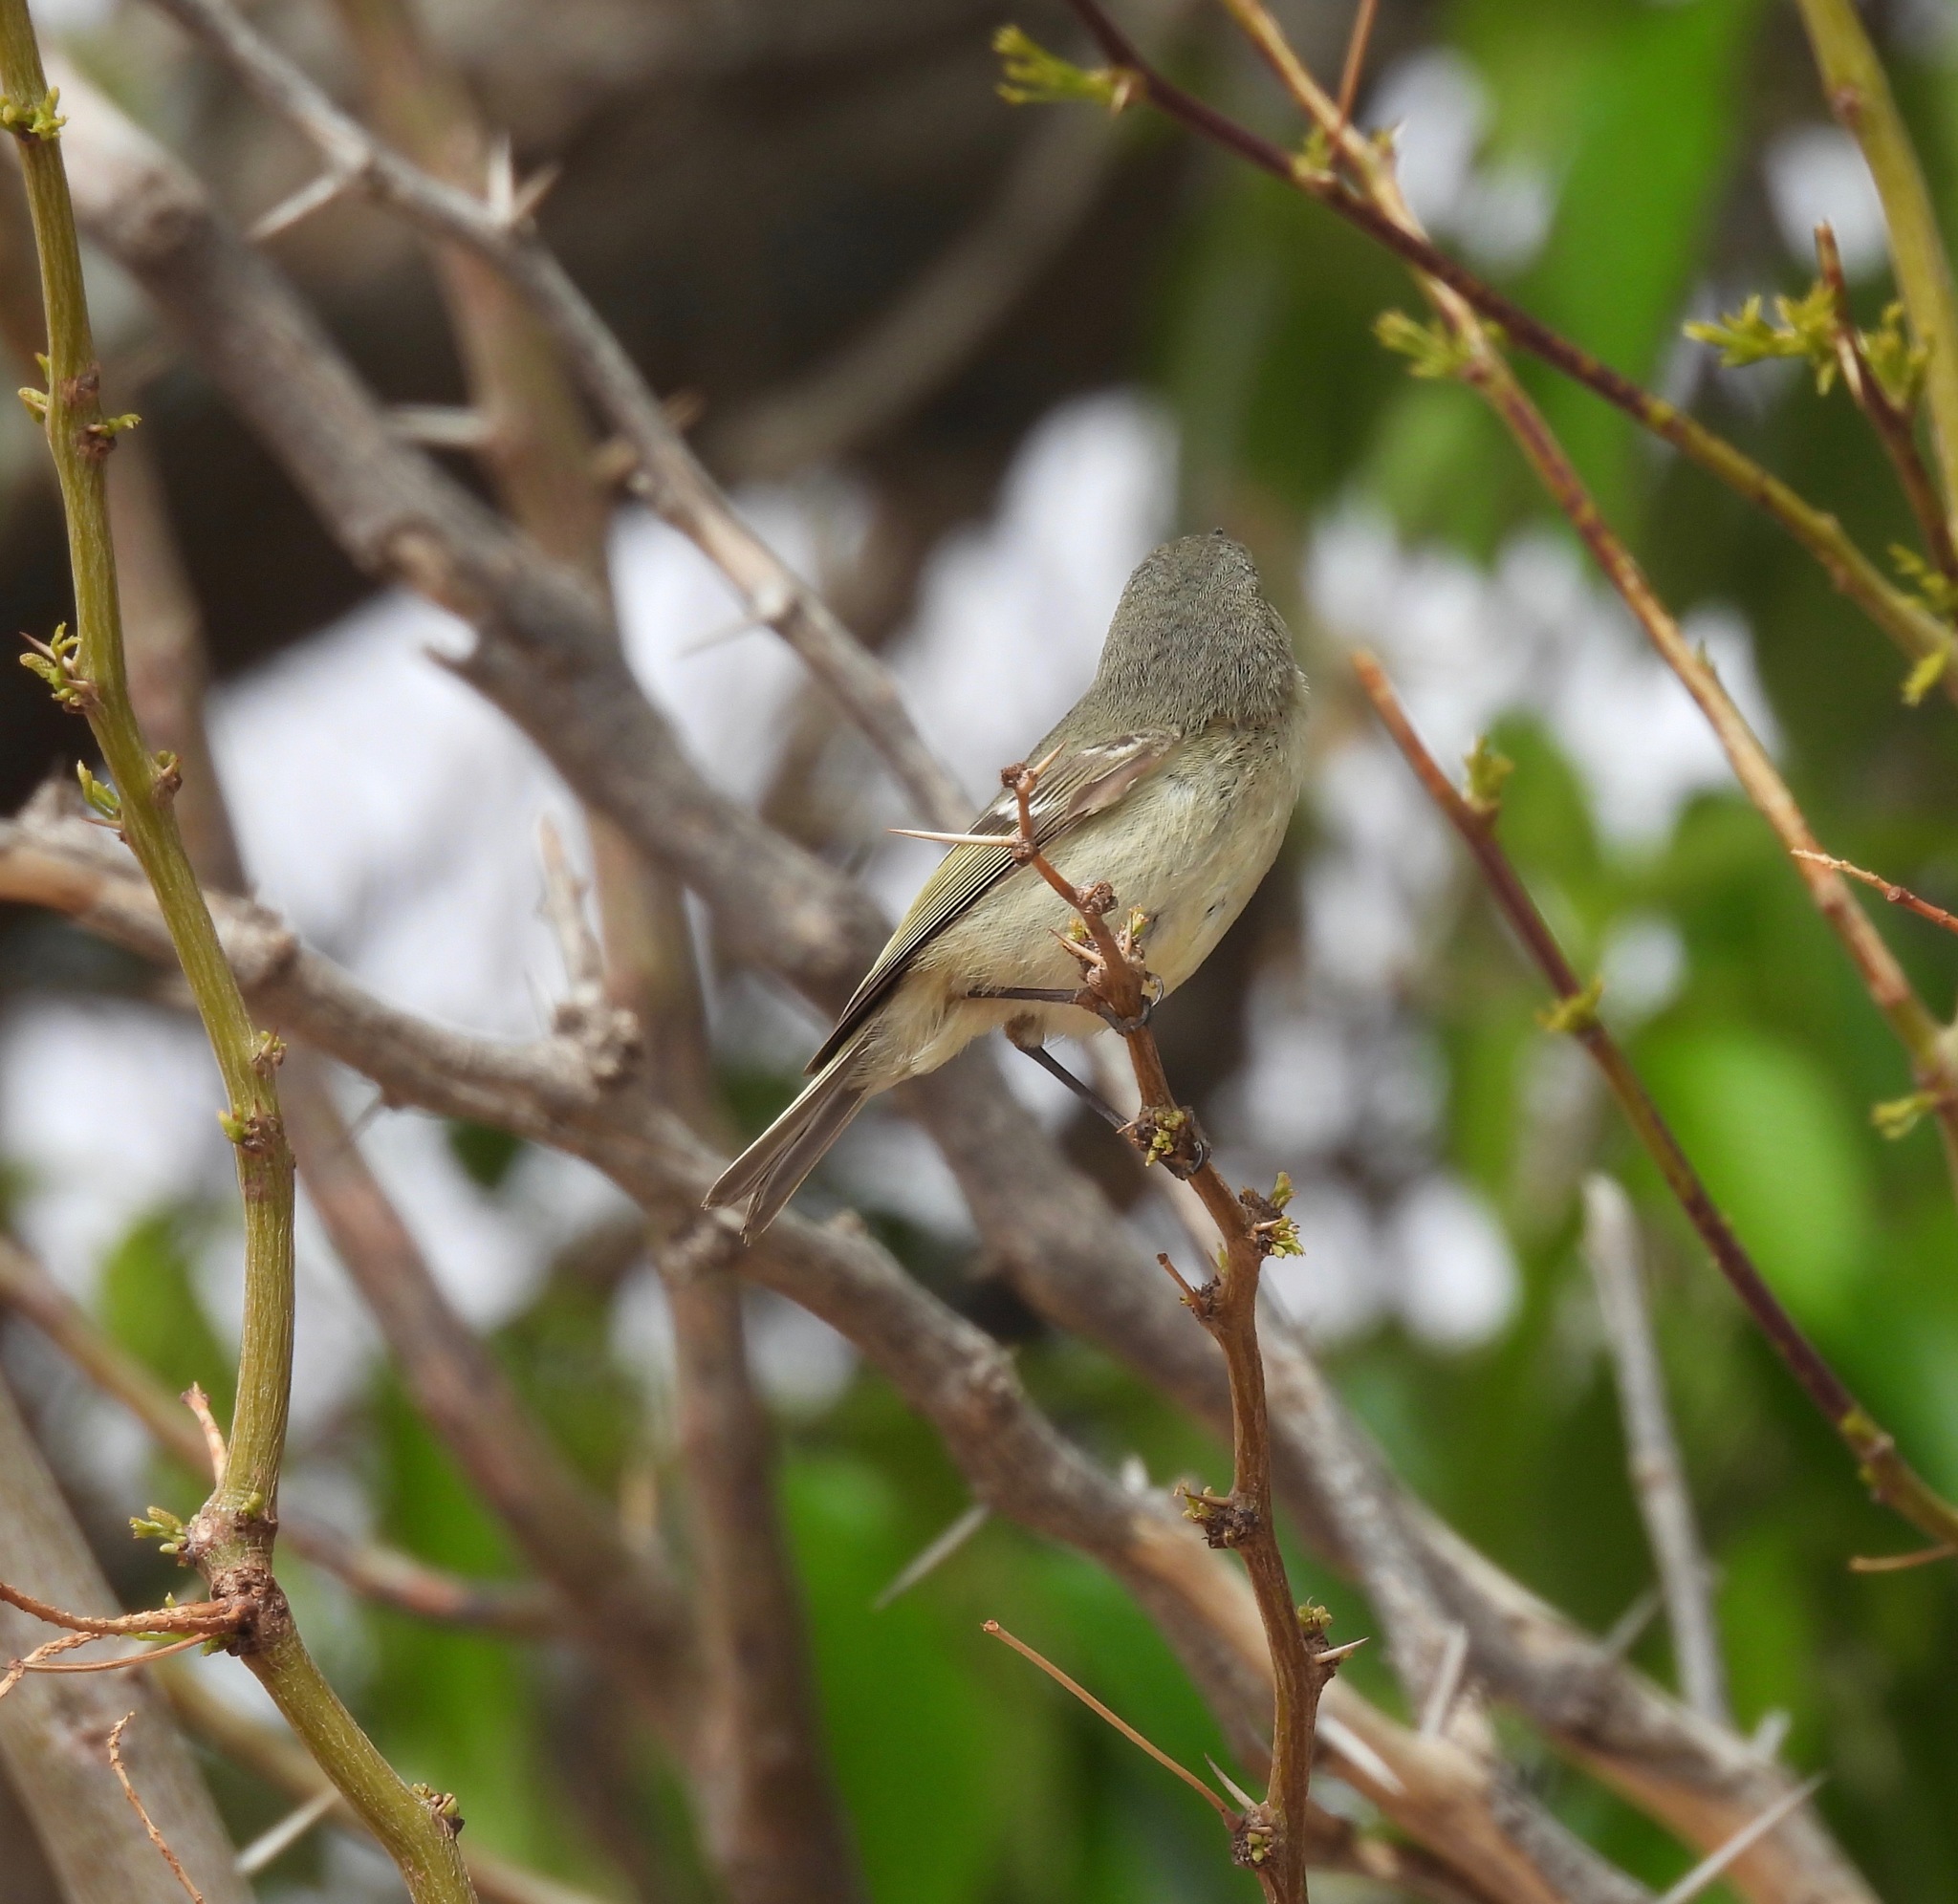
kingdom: Animalia
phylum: Chordata
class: Aves
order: Passeriformes
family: Regulidae
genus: Regulus
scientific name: Regulus calendula
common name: Ruby-crowned kinglet
